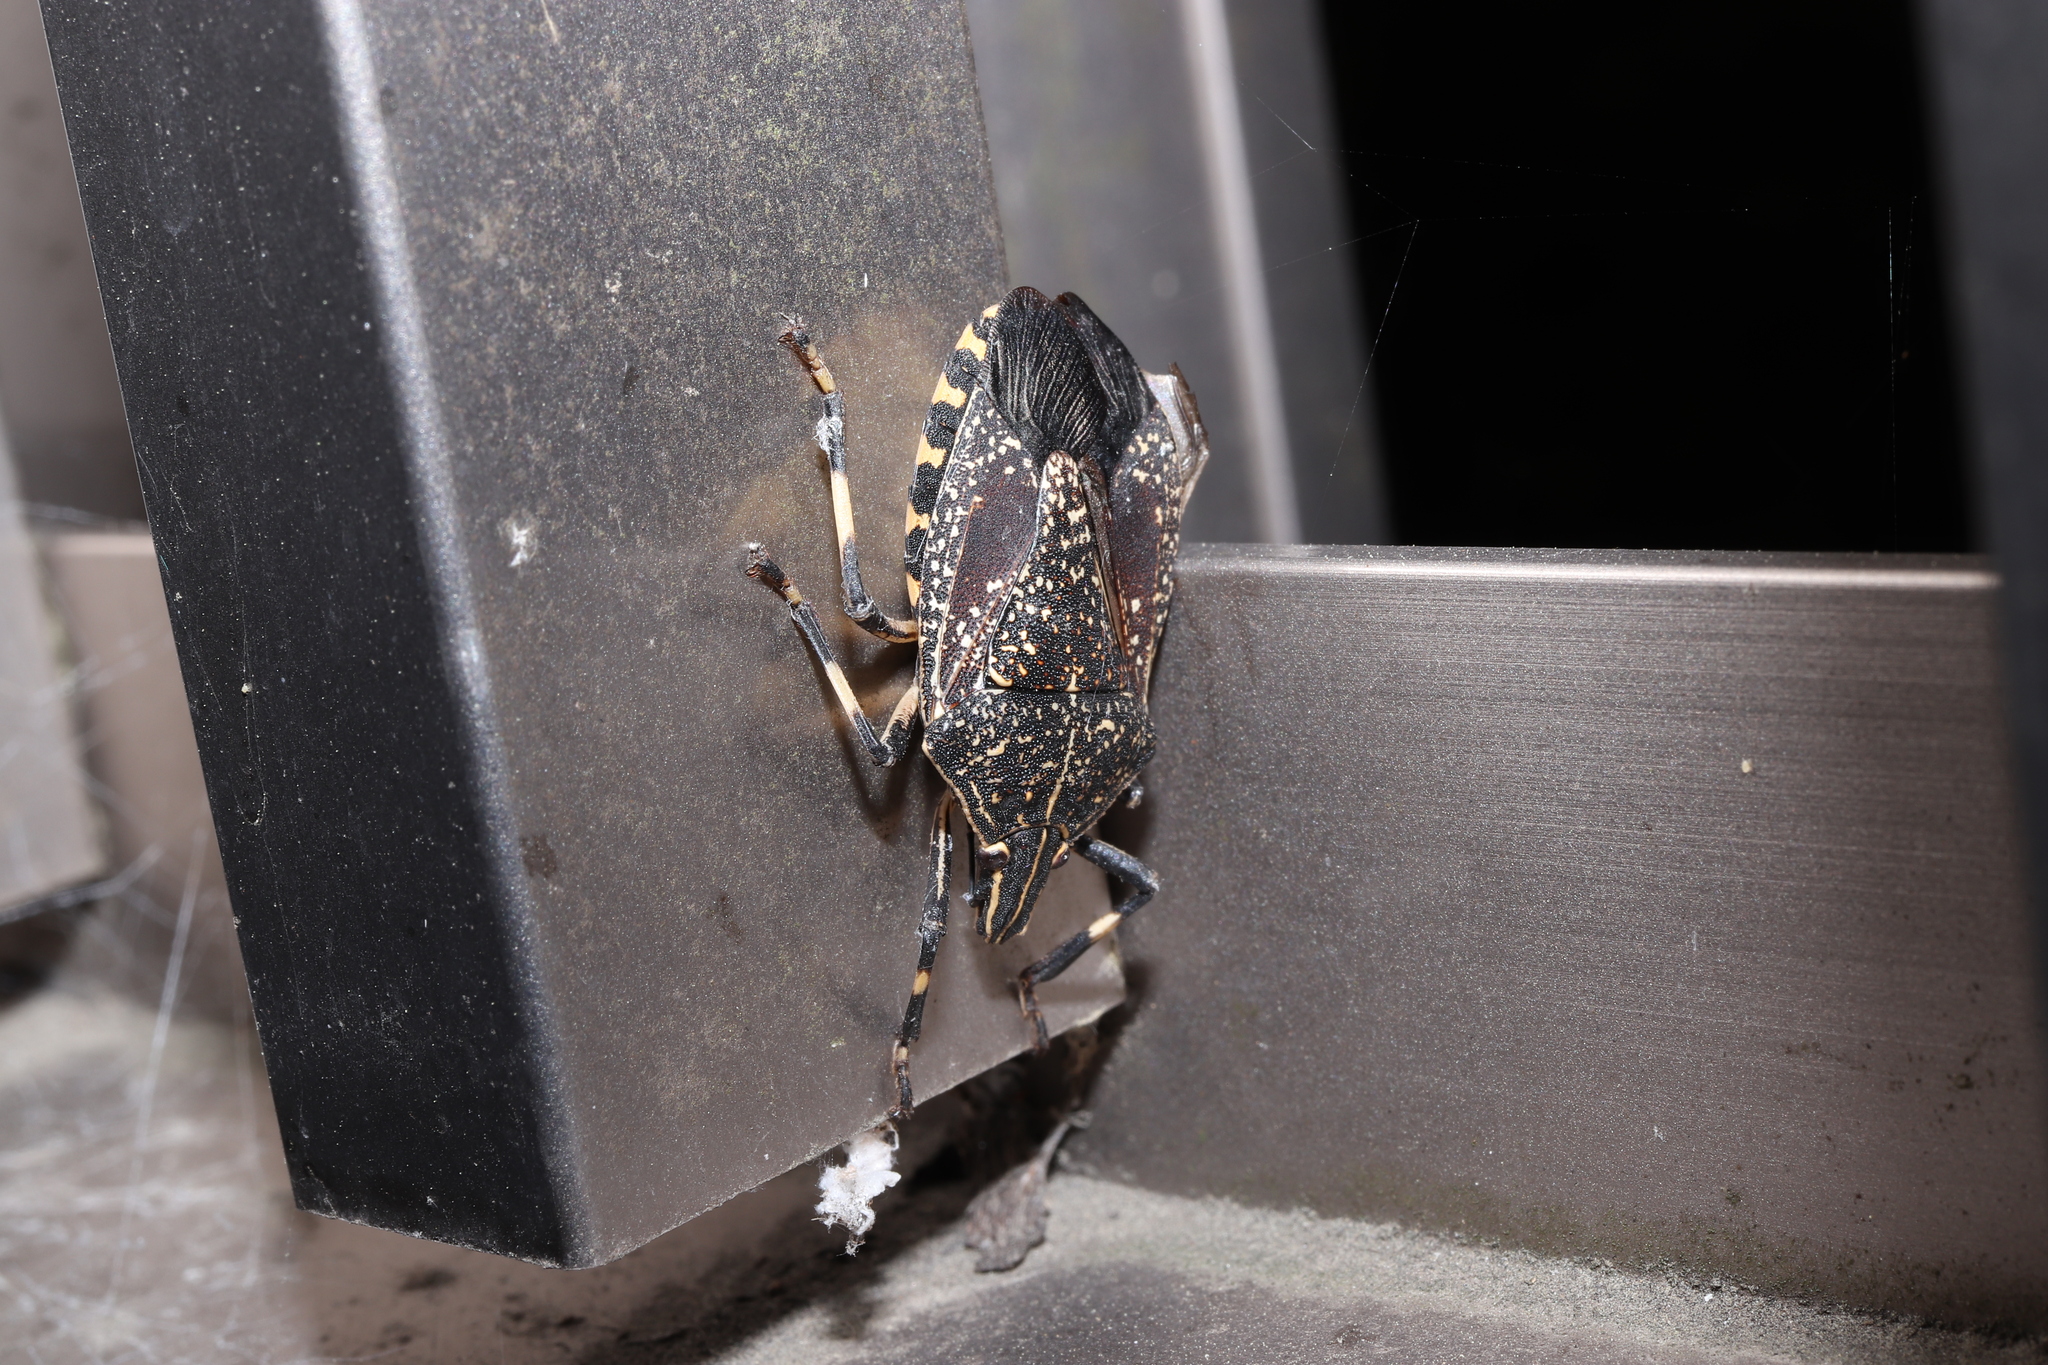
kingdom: Animalia
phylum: Arthropoda
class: Insecta
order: Hemiptera
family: Pentatomidae
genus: Erthesina
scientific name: Erthesina fullo
